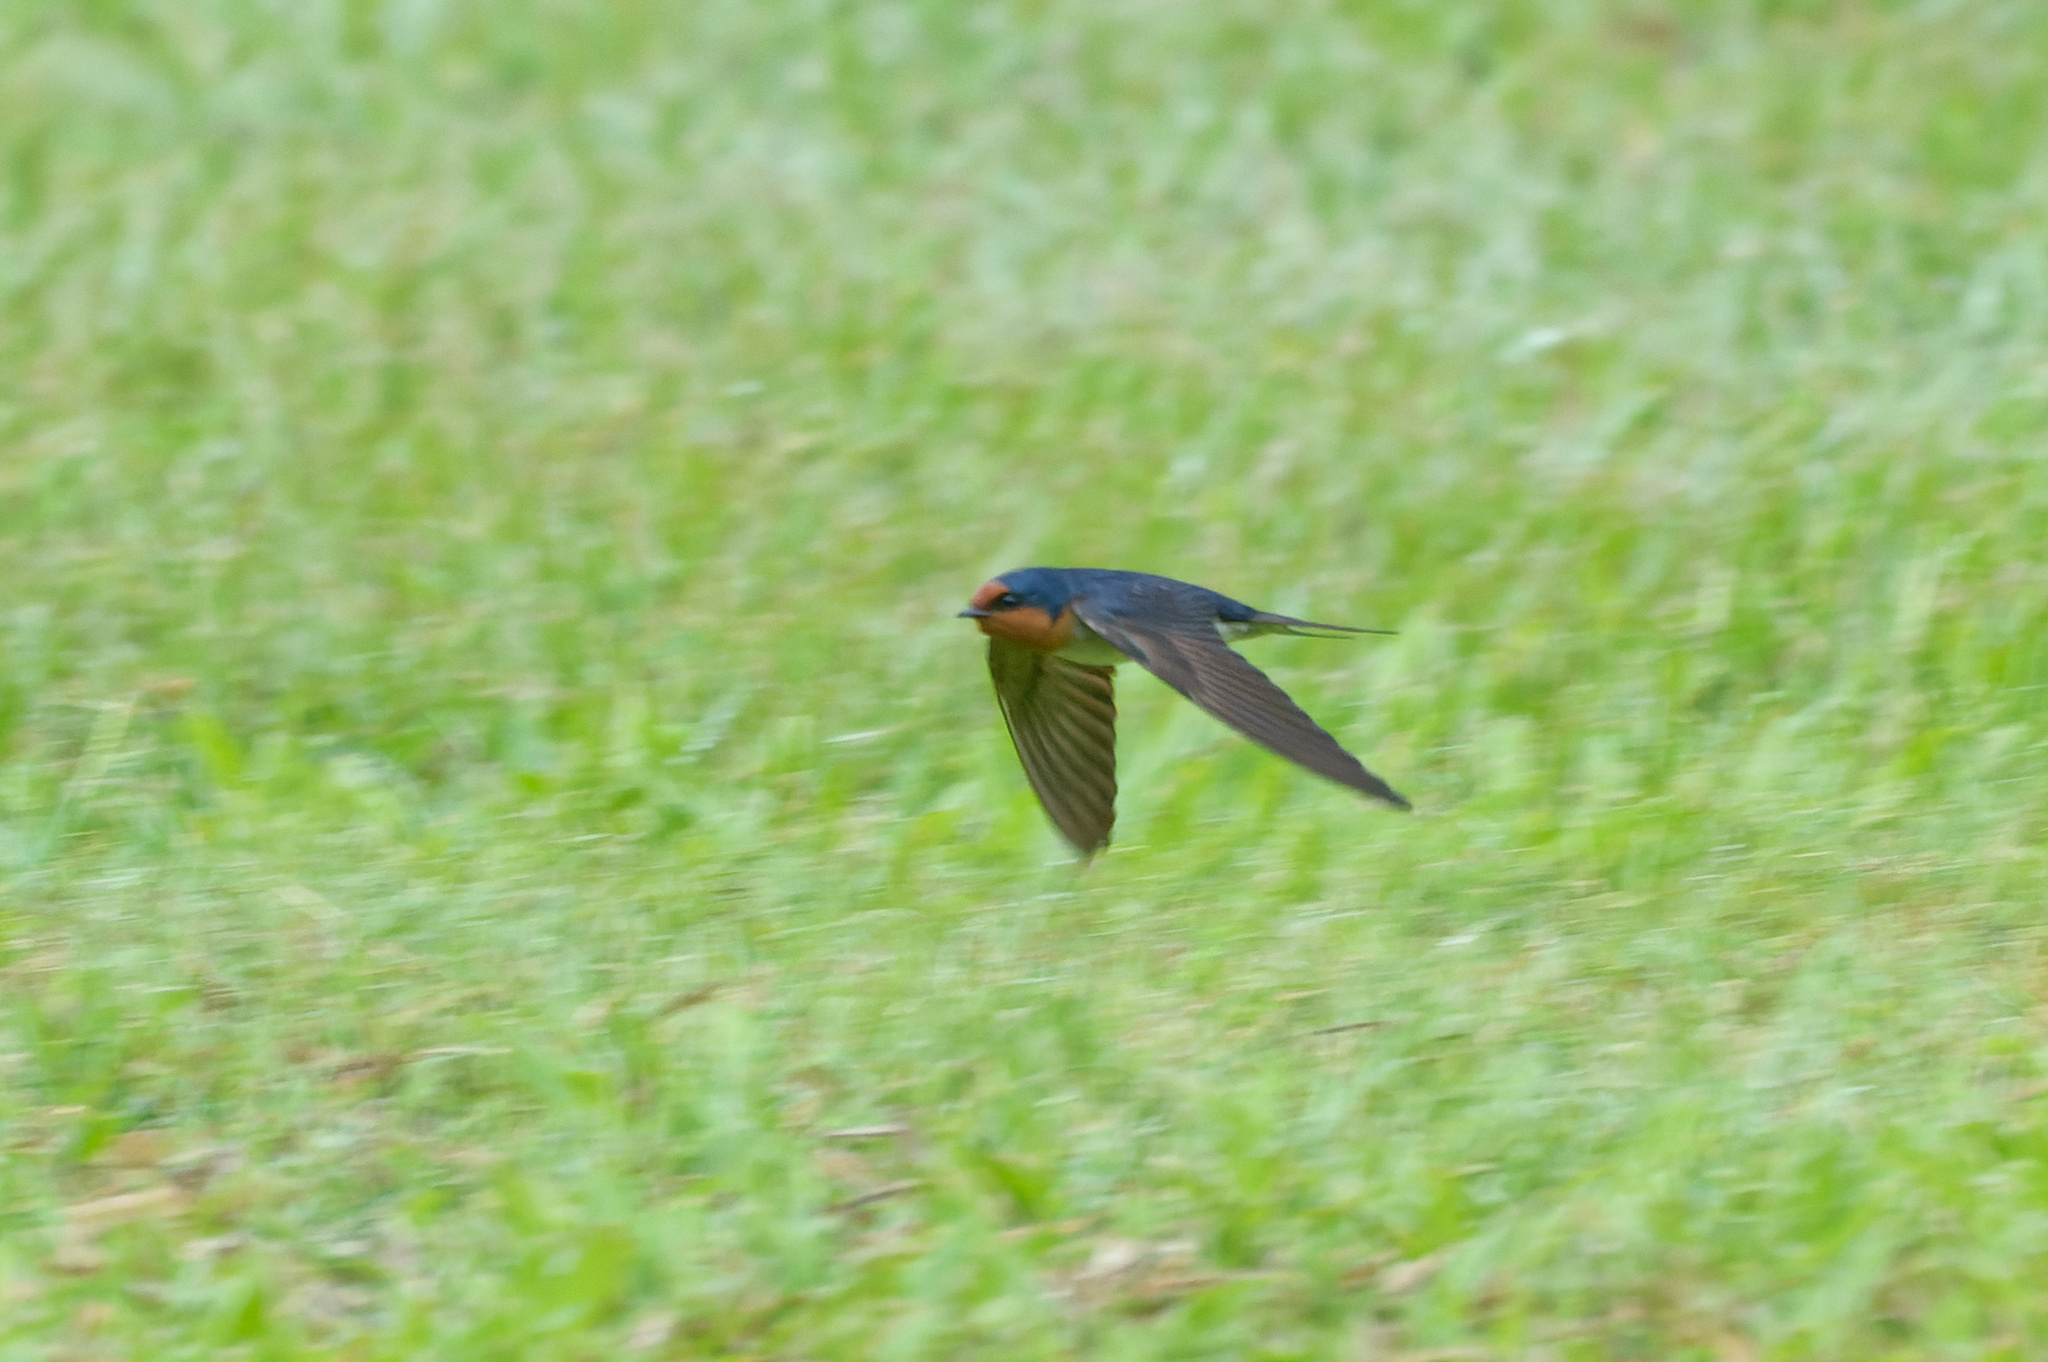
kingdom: Animalia
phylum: Chordata
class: Aves
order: Passeriformes
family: Hirundinidae
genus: Hirundo
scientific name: Hirundo neoxena
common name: Welcome swallow
